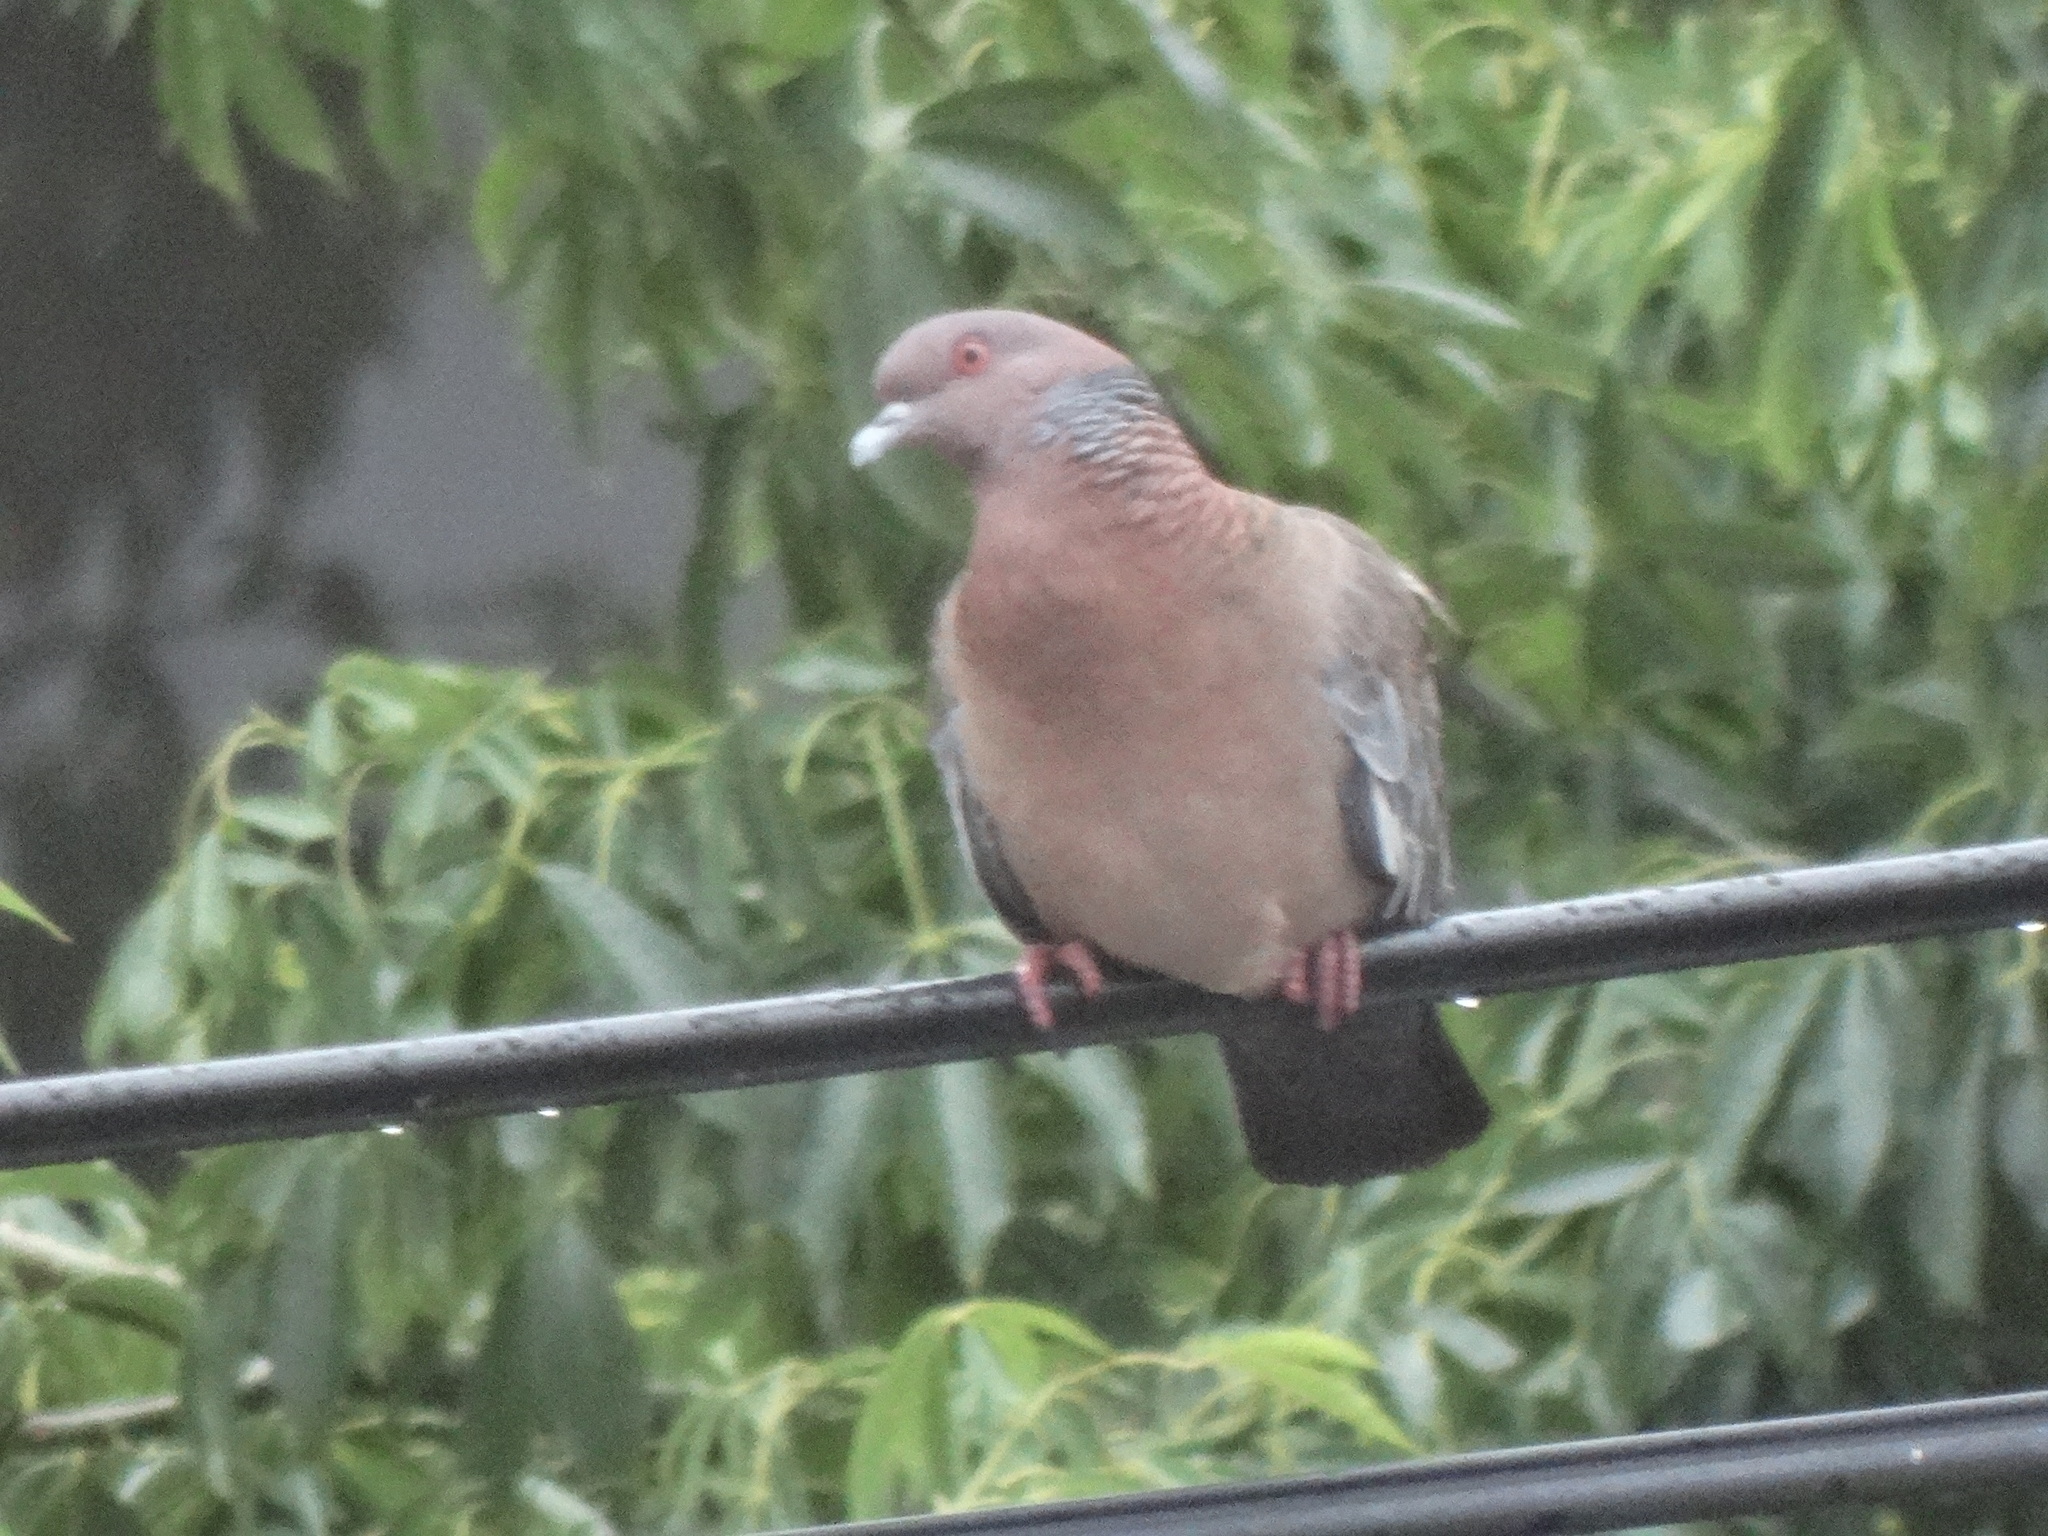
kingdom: Animalia
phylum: Chordata
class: Aves
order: Columbiformes
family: Columbidae
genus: Patagioenas
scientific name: Patagioenas picazuro
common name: Picazuro pigeon
